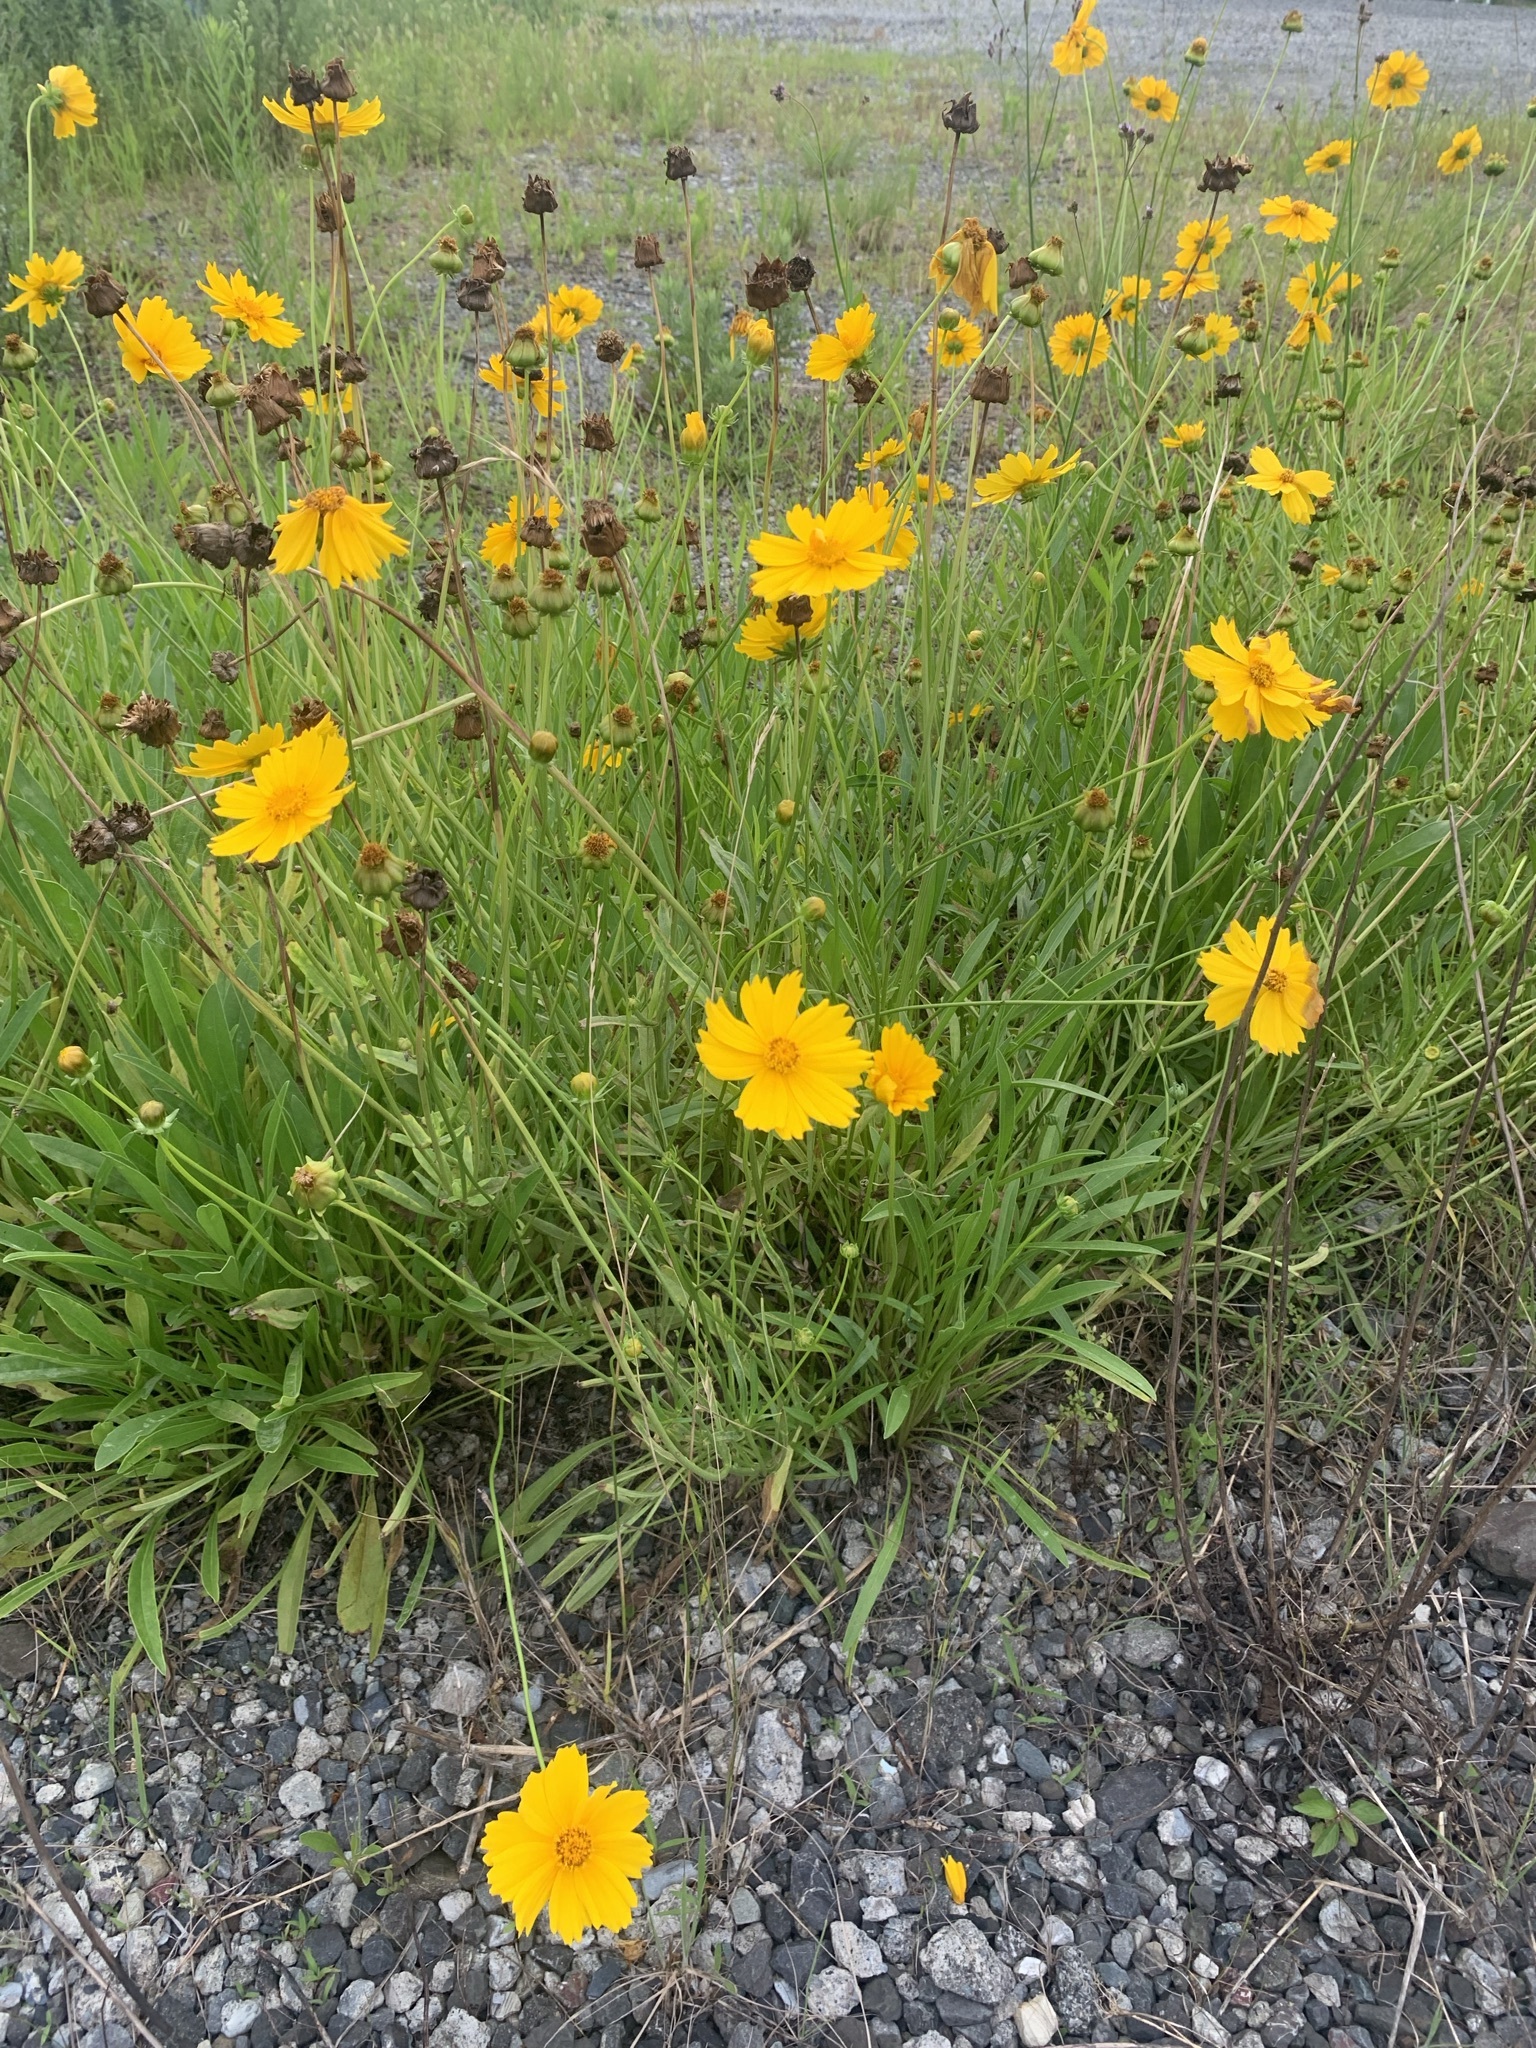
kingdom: Plantae
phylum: Tracheophyta
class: Magnoliopsida
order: Asterales
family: Asteraceae
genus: Coreopsis
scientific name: Coreopsis lanceolata
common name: Garden coreopsis
